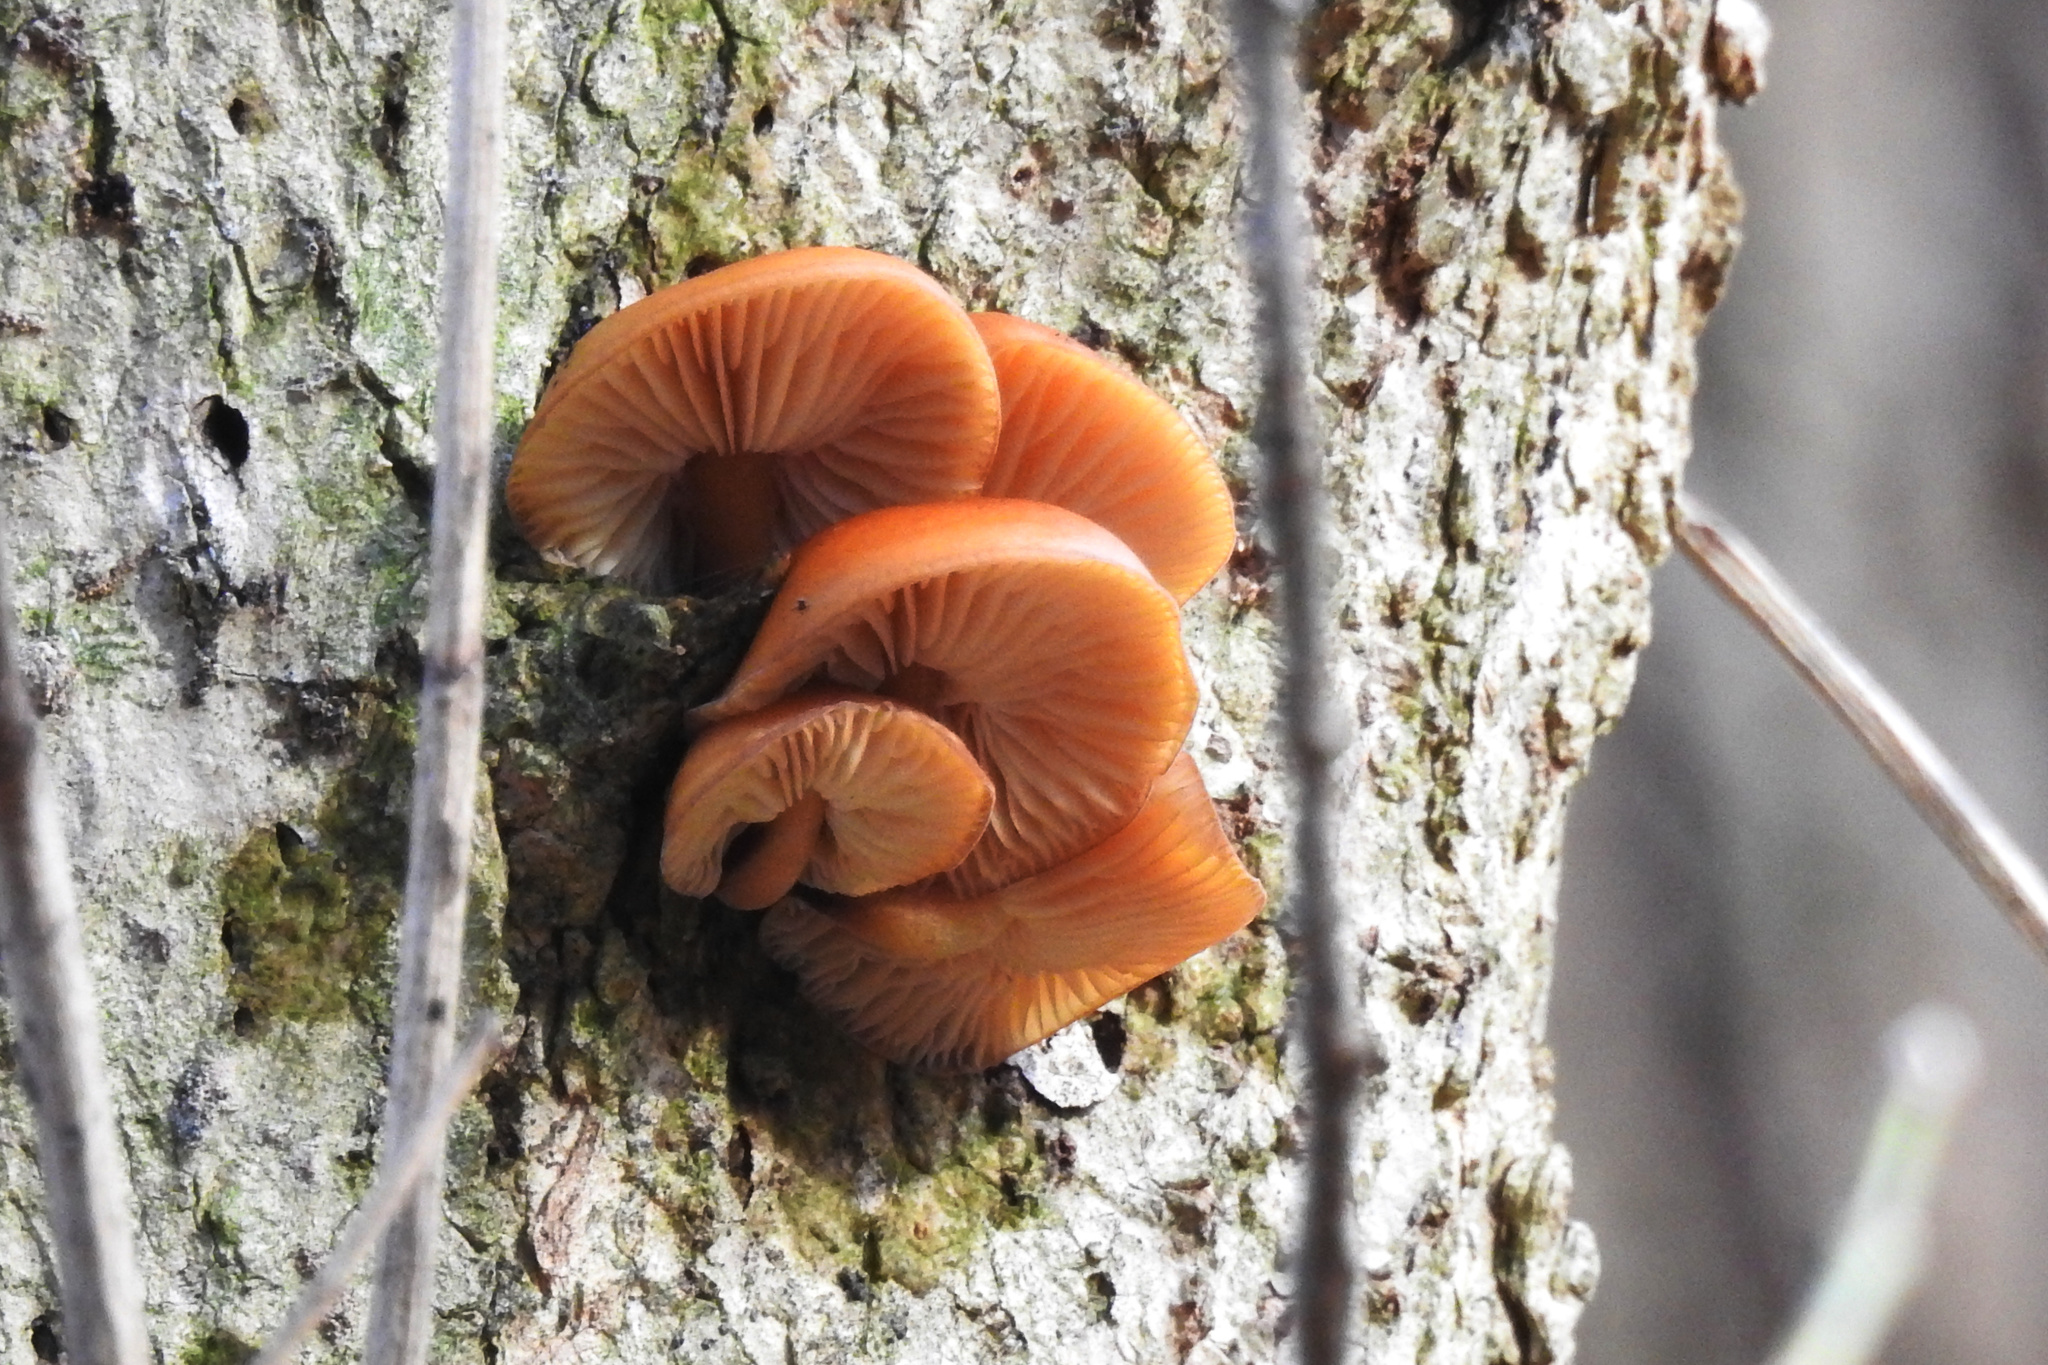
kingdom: Fungi
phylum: Basidiomycota
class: Agaricomycetes
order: Agaricales
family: Physalacriaceae
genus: Flammulina
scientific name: Flammulina velutipes
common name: Velvet shank
